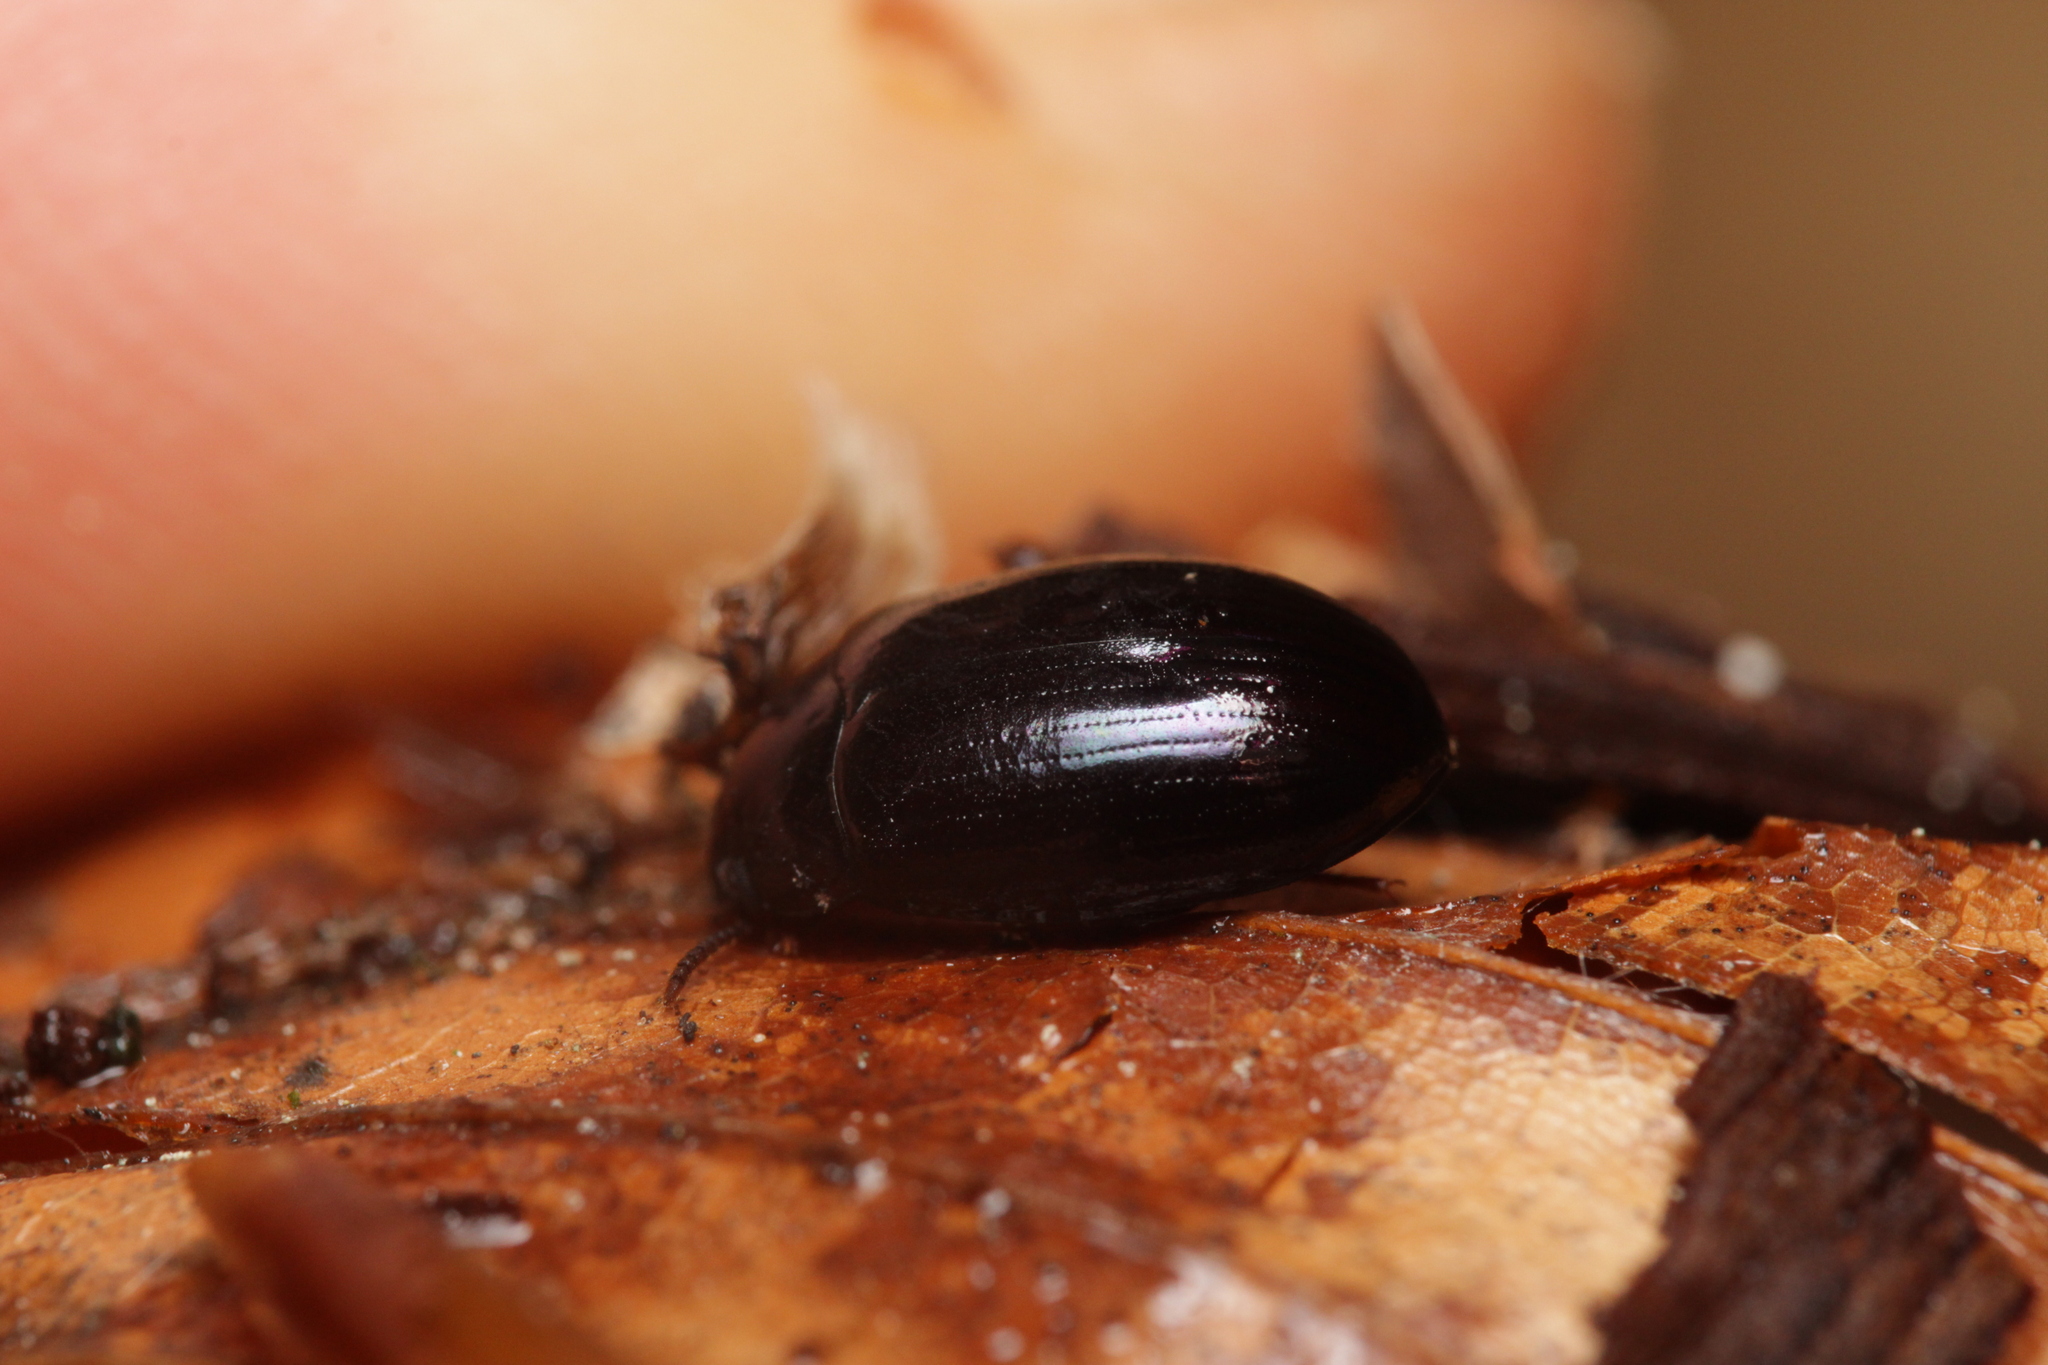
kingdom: Animalia
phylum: Arthropoda
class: Insecta
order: Coleoptera
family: Tenebrionidae
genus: Platydema
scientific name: Platydema violaceum
